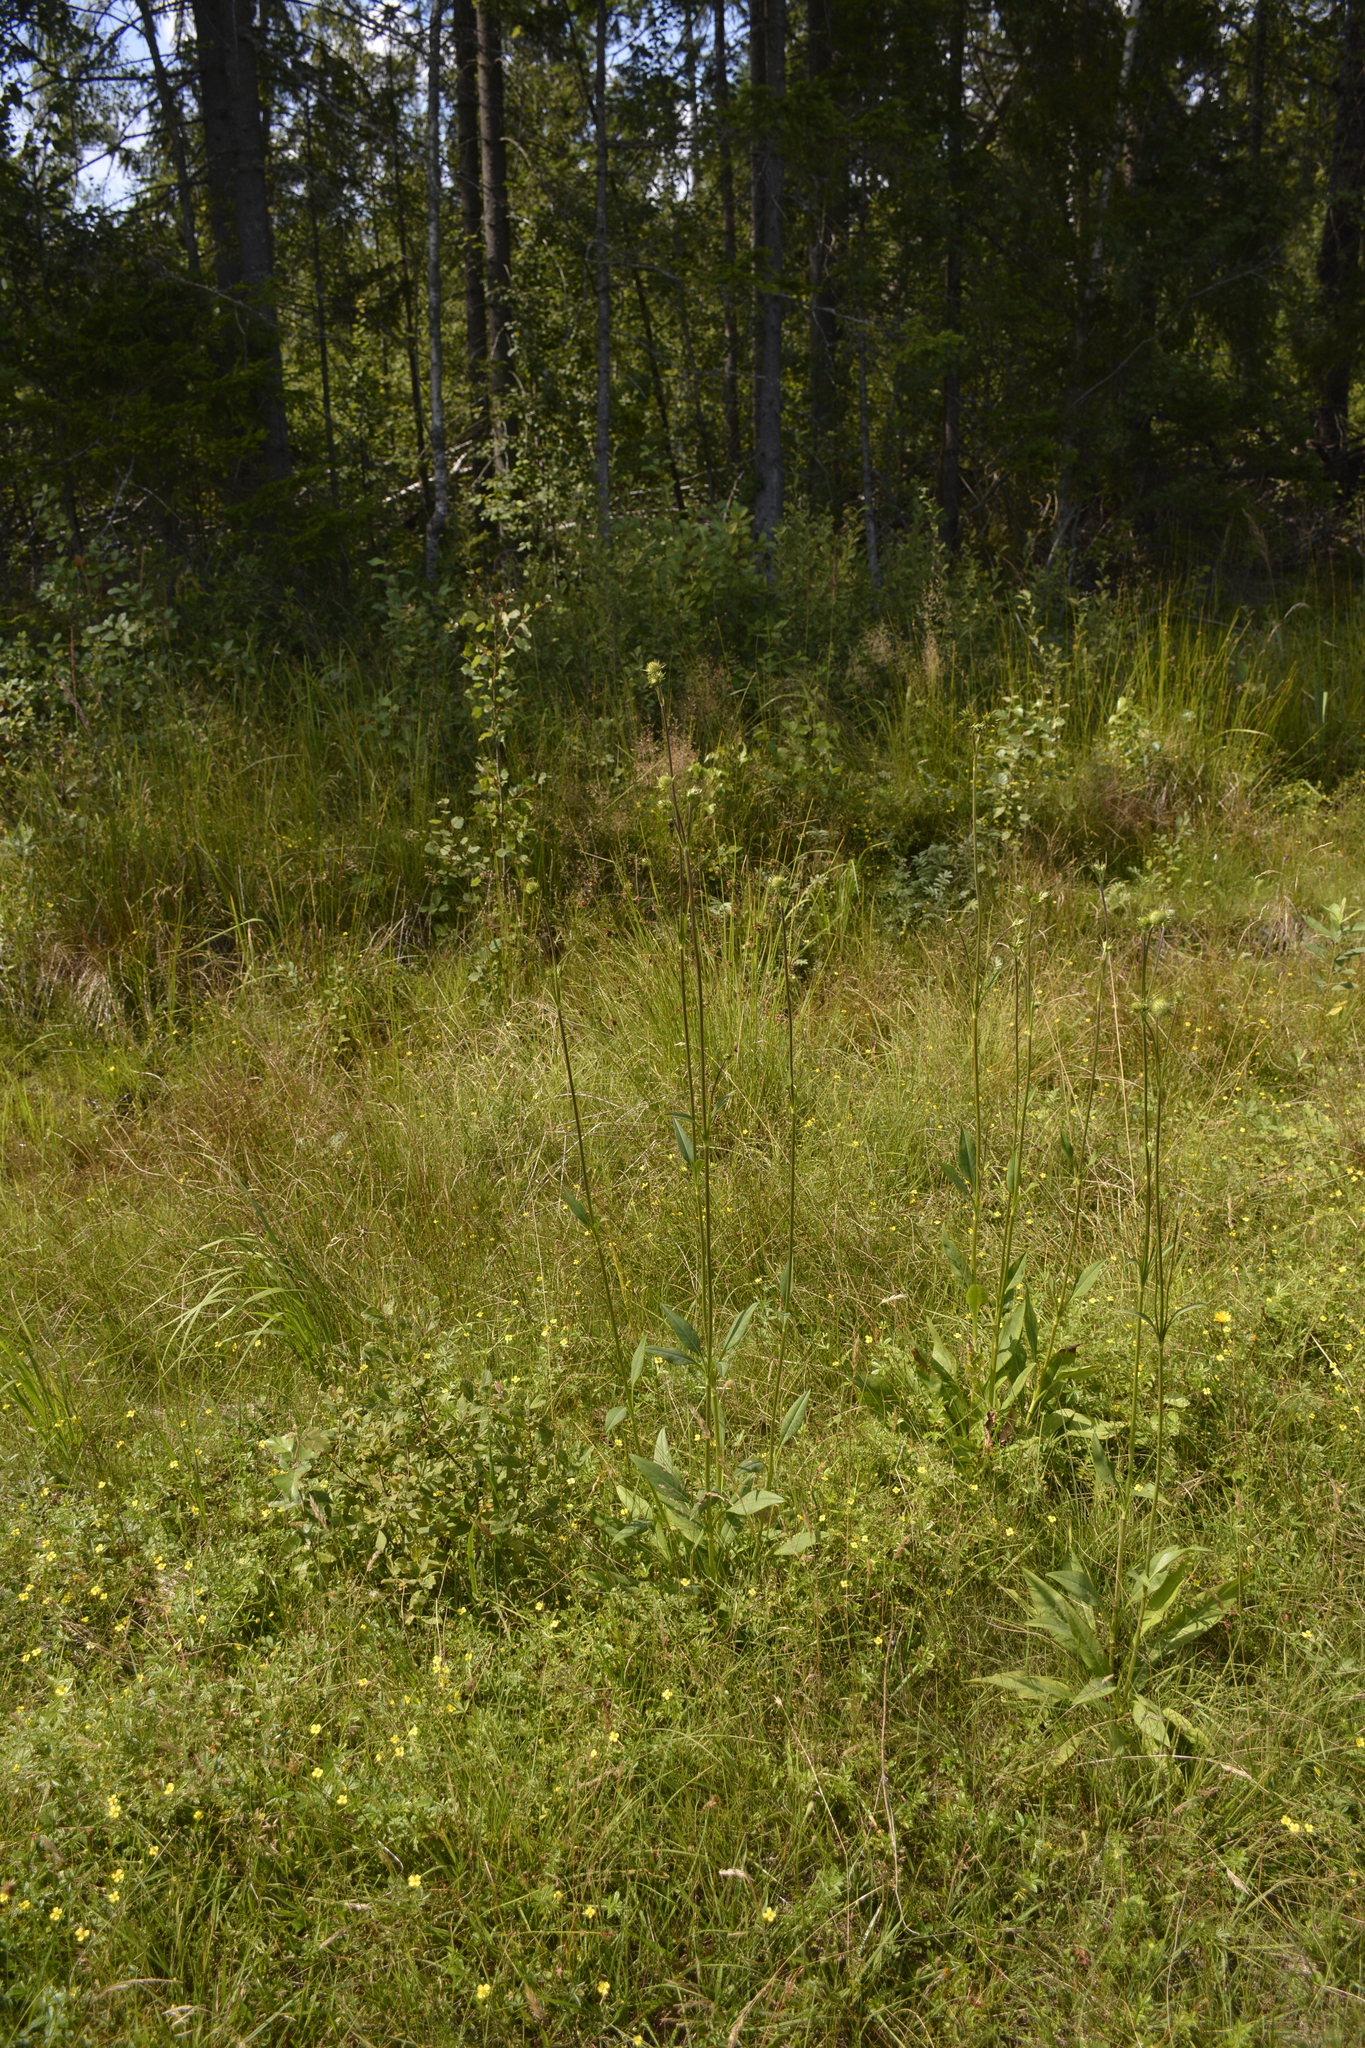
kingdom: Plantae
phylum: Tracheophyta
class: Magnoliopsida
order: Dipsacales
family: Caprifoliaceae
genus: Succisa
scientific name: Succisa pratensis
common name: Devil's-bit
